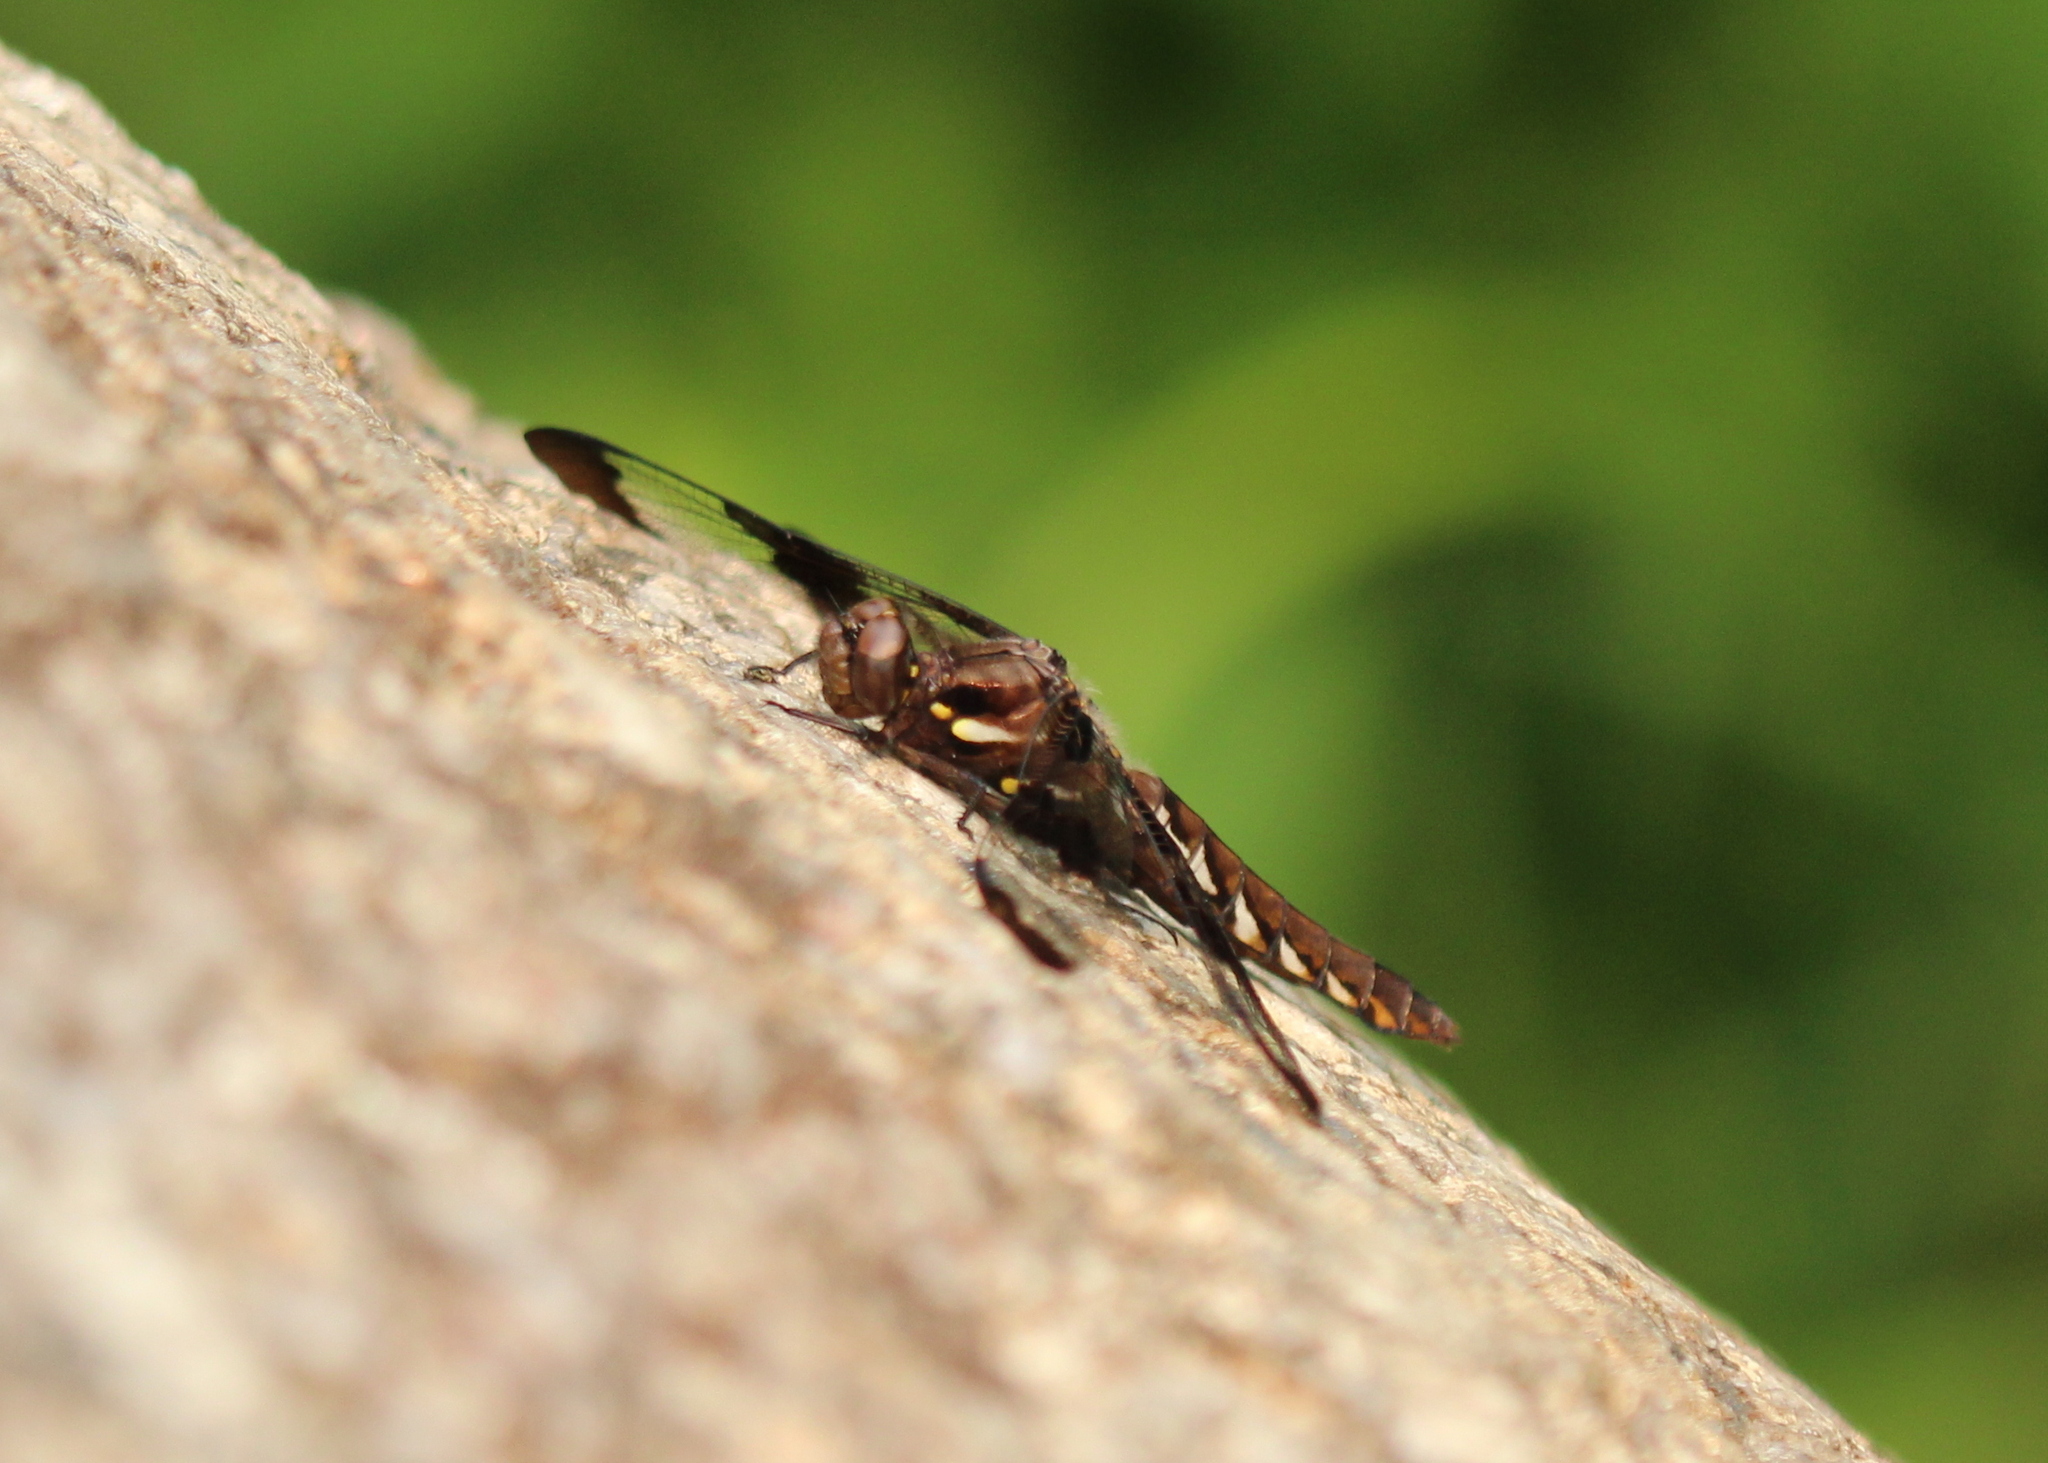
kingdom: Animalia
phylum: Arthropoda
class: Insecta
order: Odonata
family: Libellulidae
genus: Plathemis
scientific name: Plathemis lydia
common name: Common whitetail
